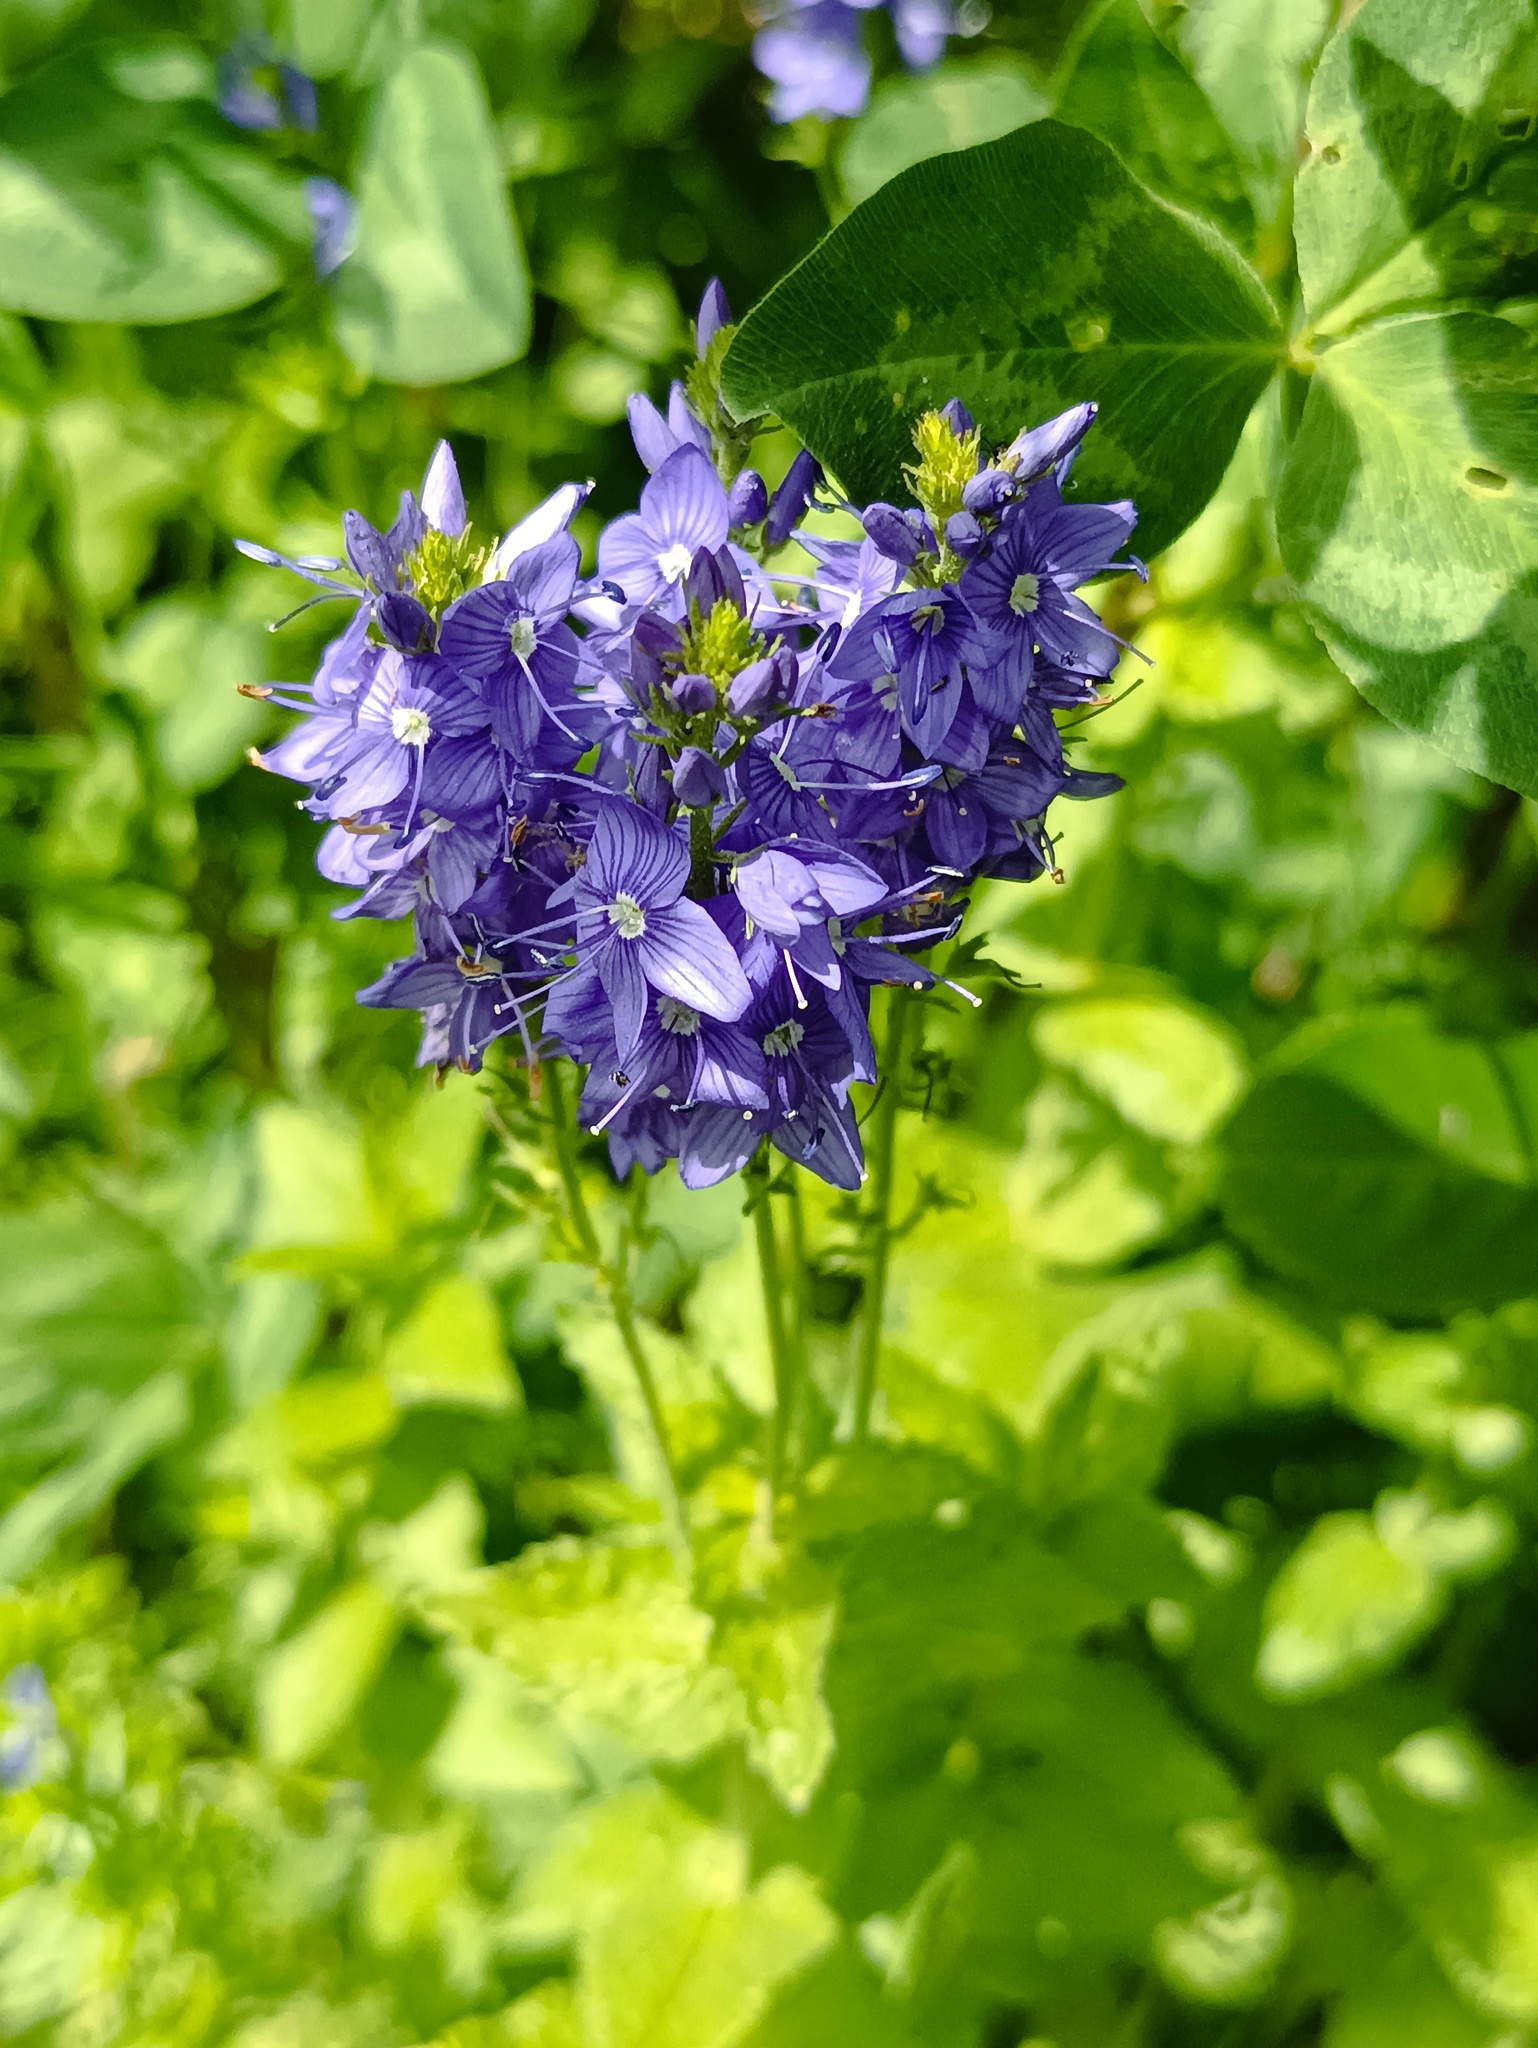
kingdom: Plantae
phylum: Tracheophyta
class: Magnoliopsida
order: Lamiales
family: Plantaginaceae
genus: Veronica
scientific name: Veronica teucrium
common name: Large speedwell
